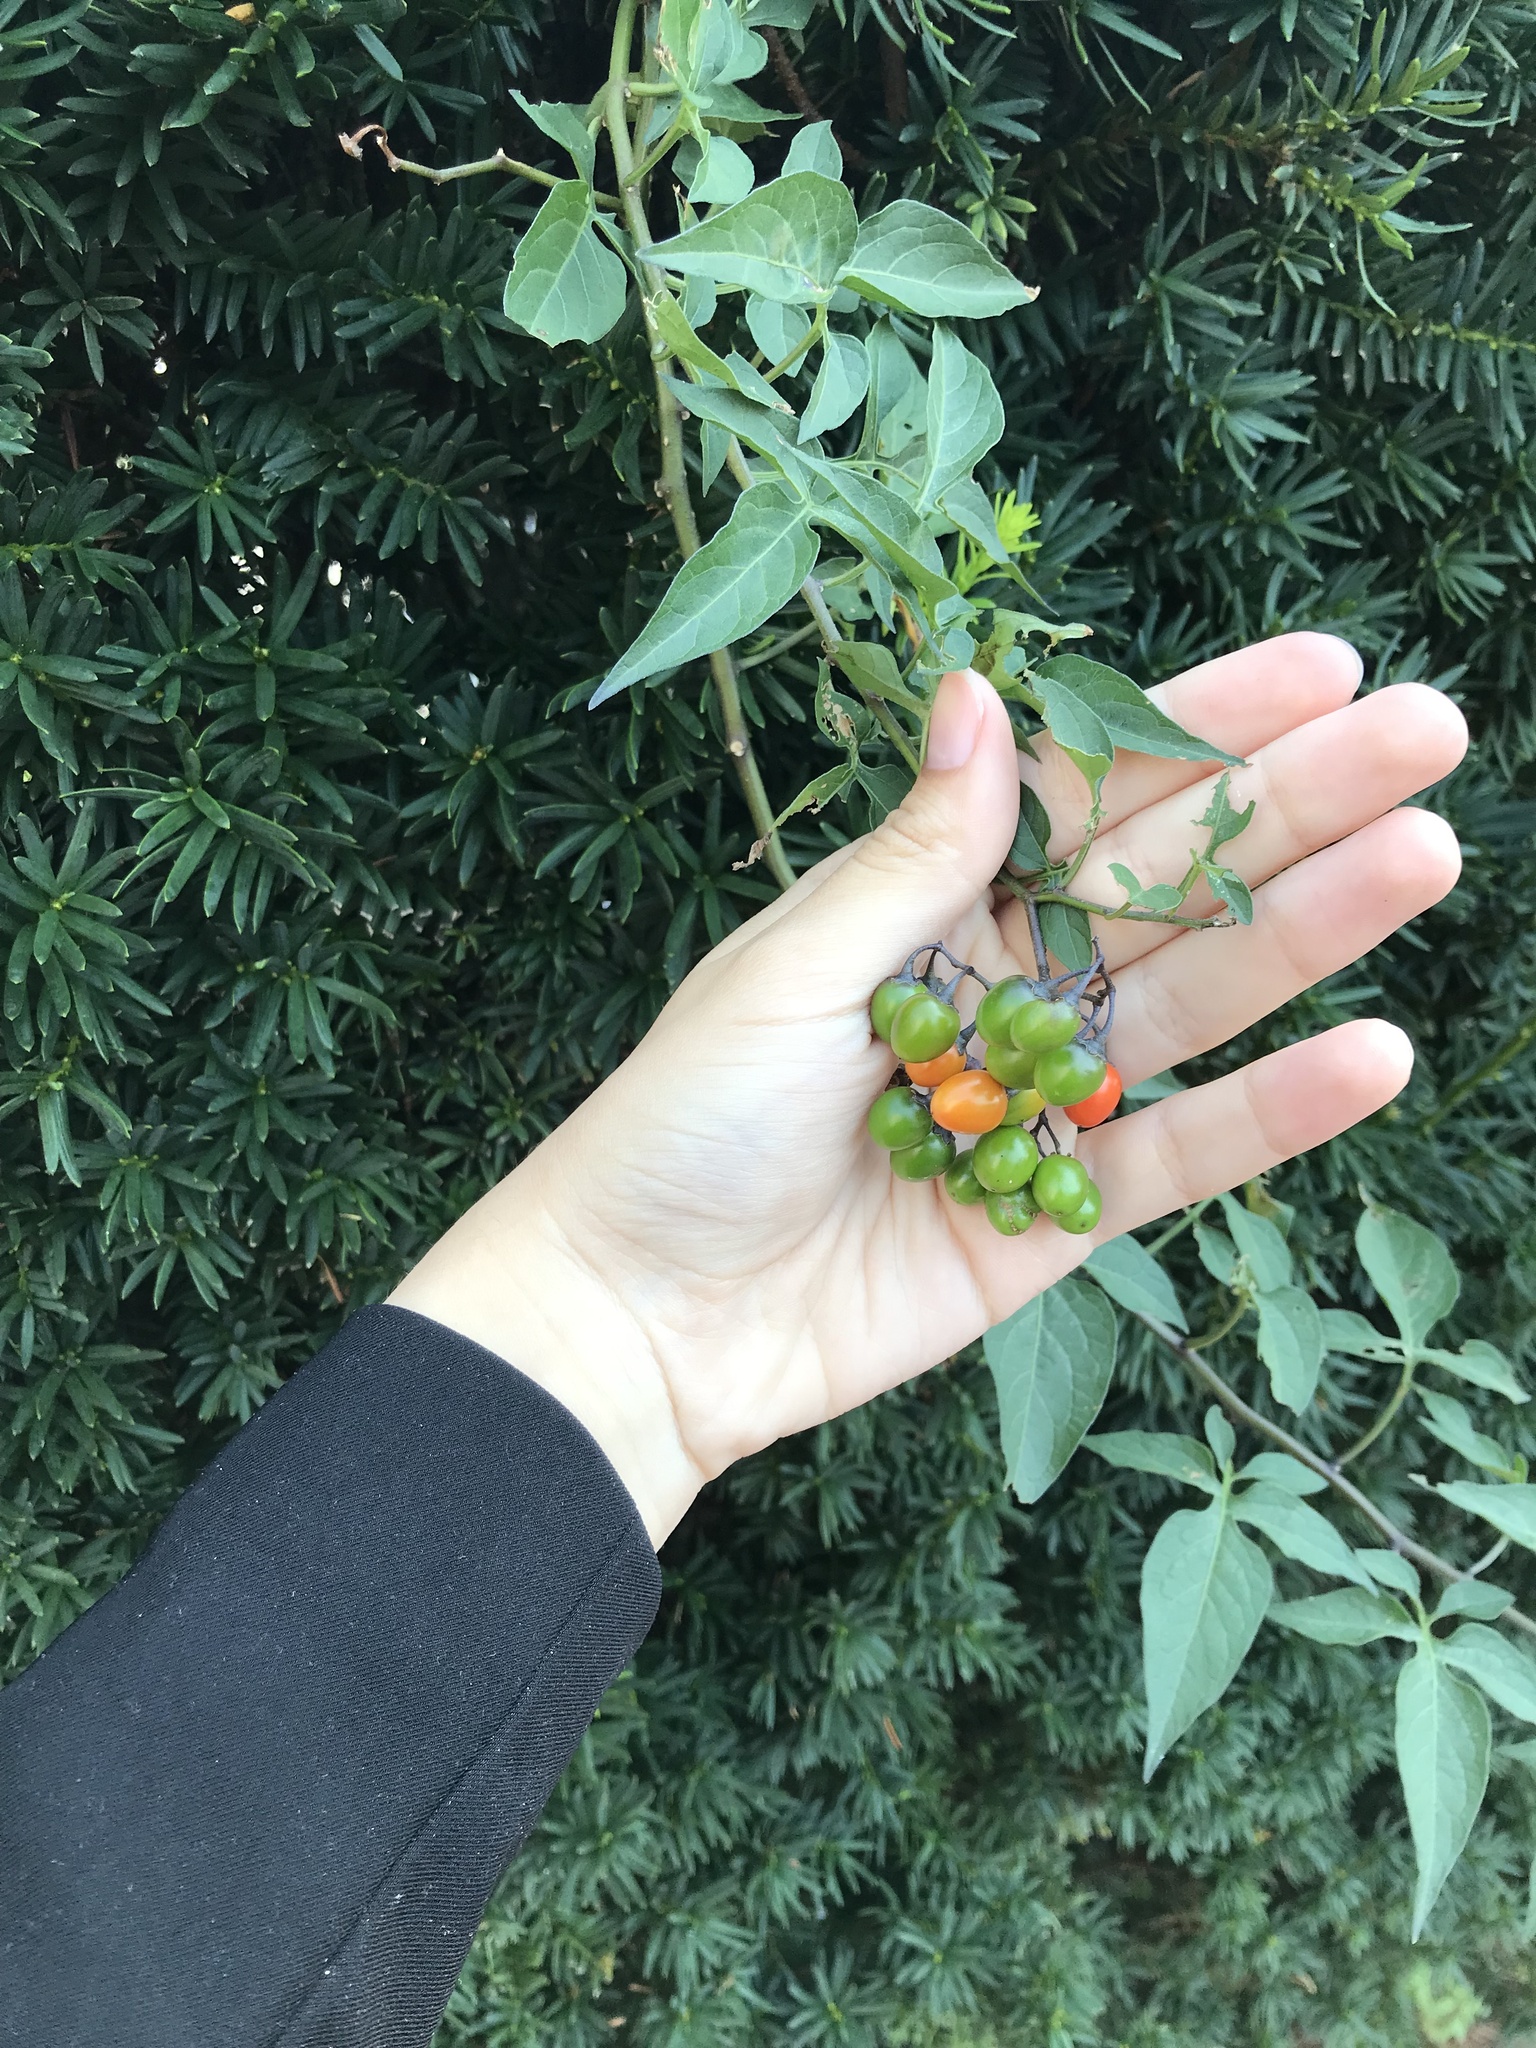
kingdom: Plantae
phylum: Tracheophyta
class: Magnoliopsida
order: Solanales
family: Solanaceae
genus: Solanum
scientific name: Solanum dulcamara
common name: Climbing nightshade
